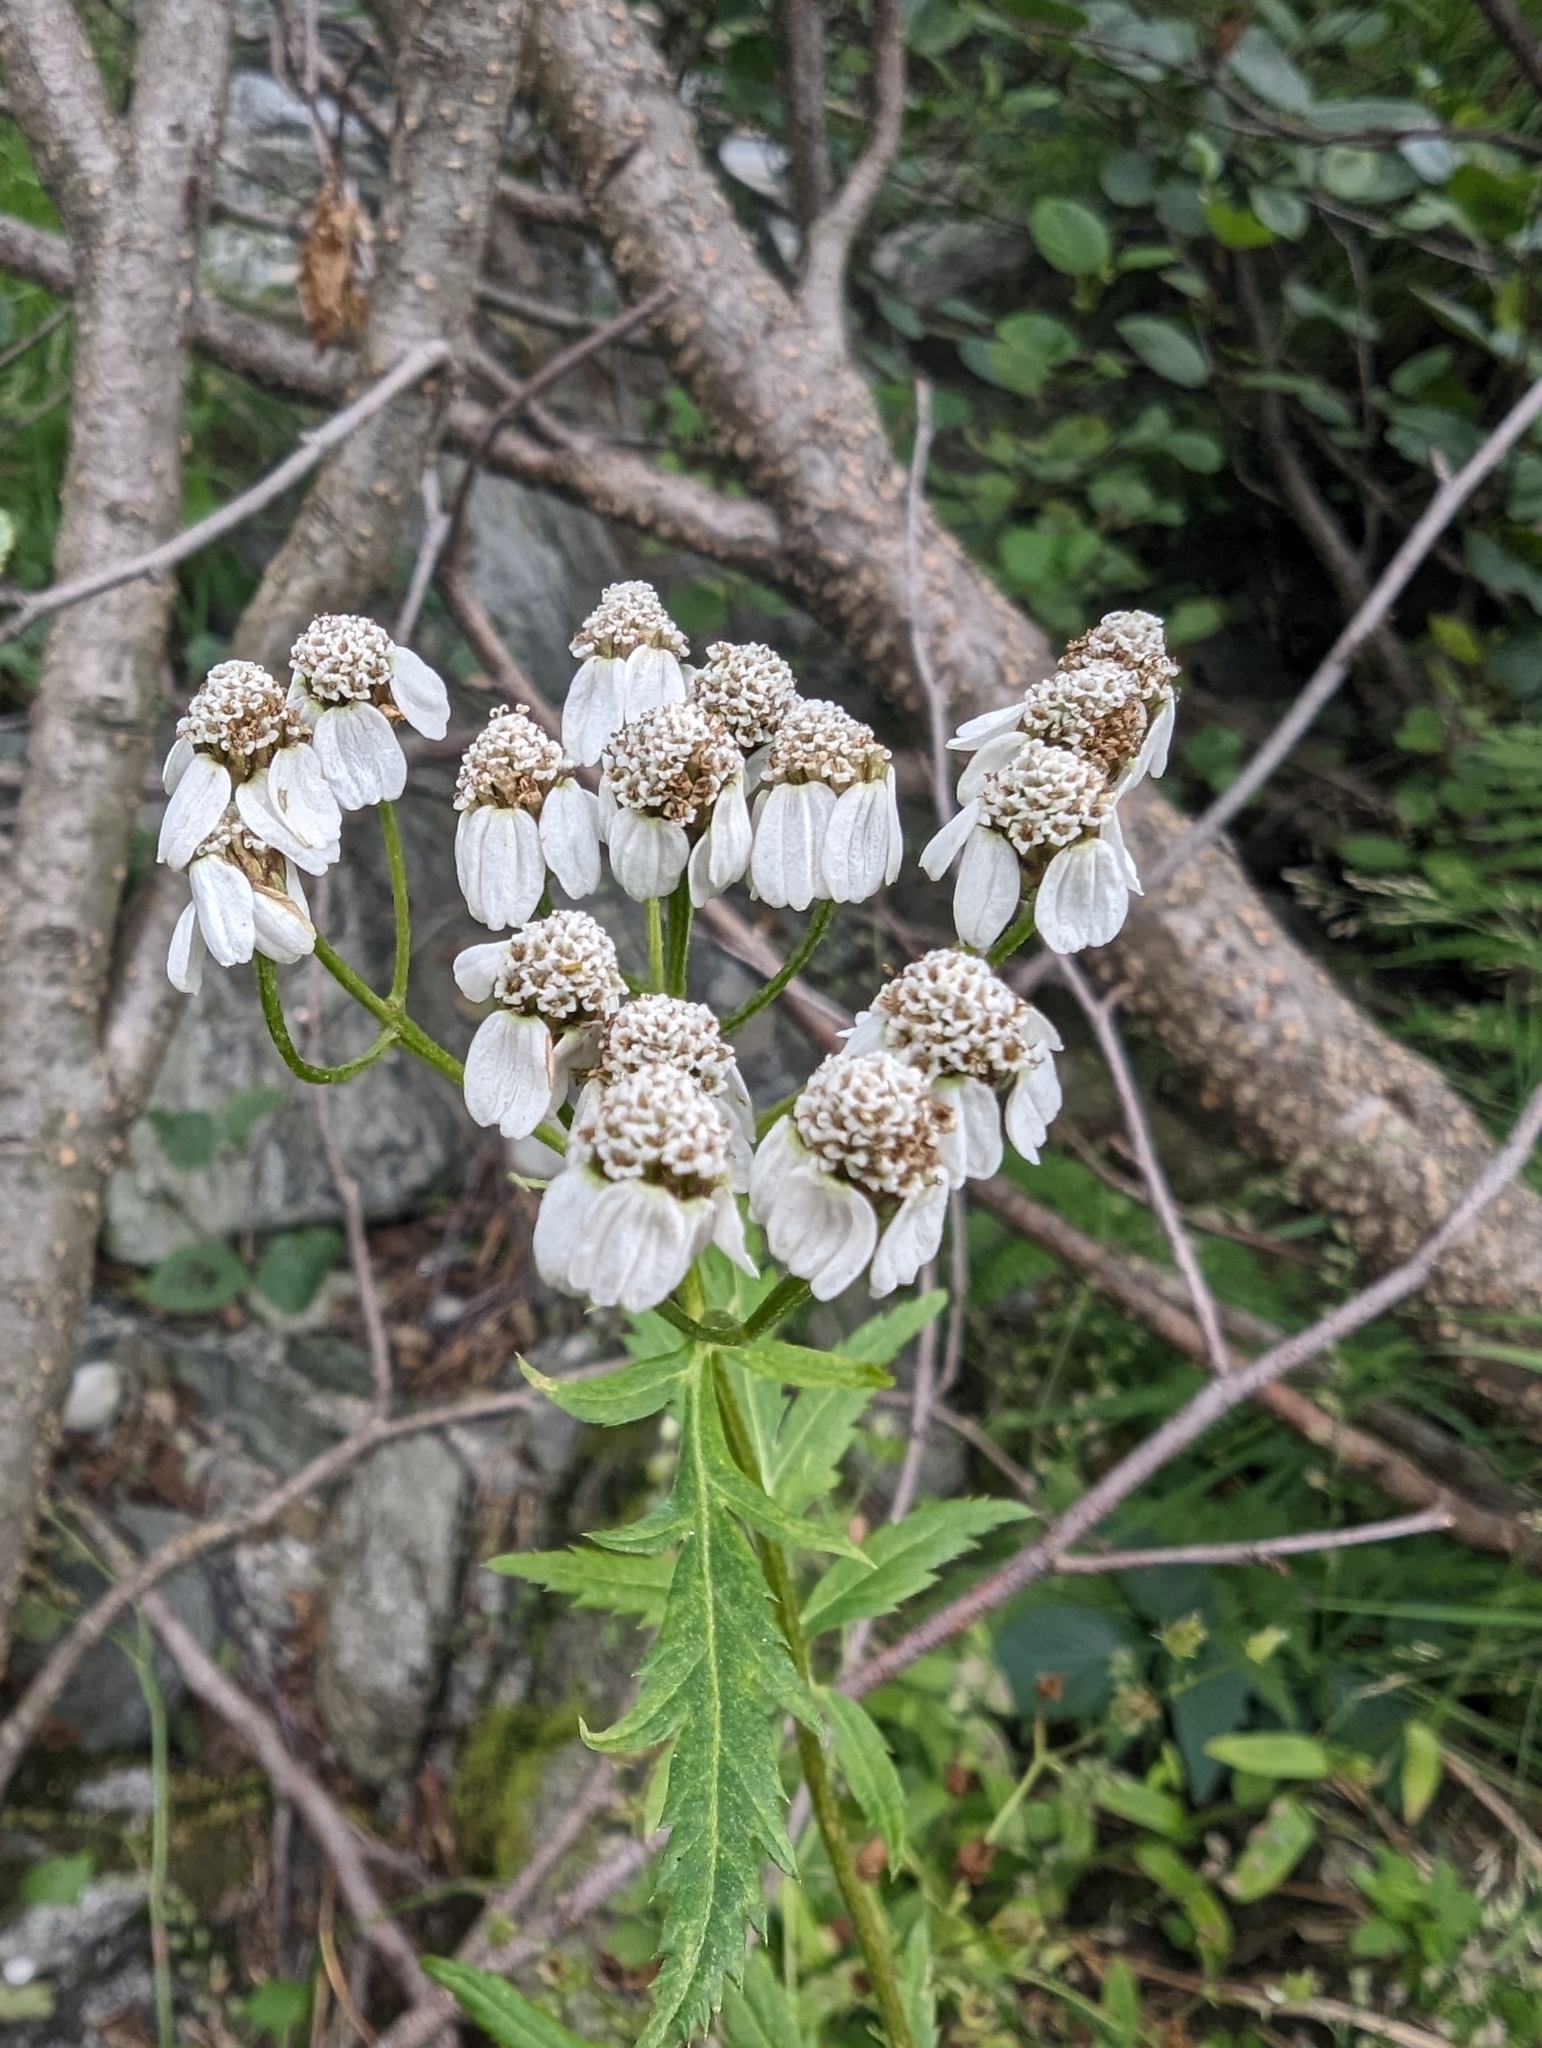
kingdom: Plantae
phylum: Tracheophyta
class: Magnoliopsida
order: Asterales
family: Asteraceae
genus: Achillea
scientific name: Achillea macrophylla
